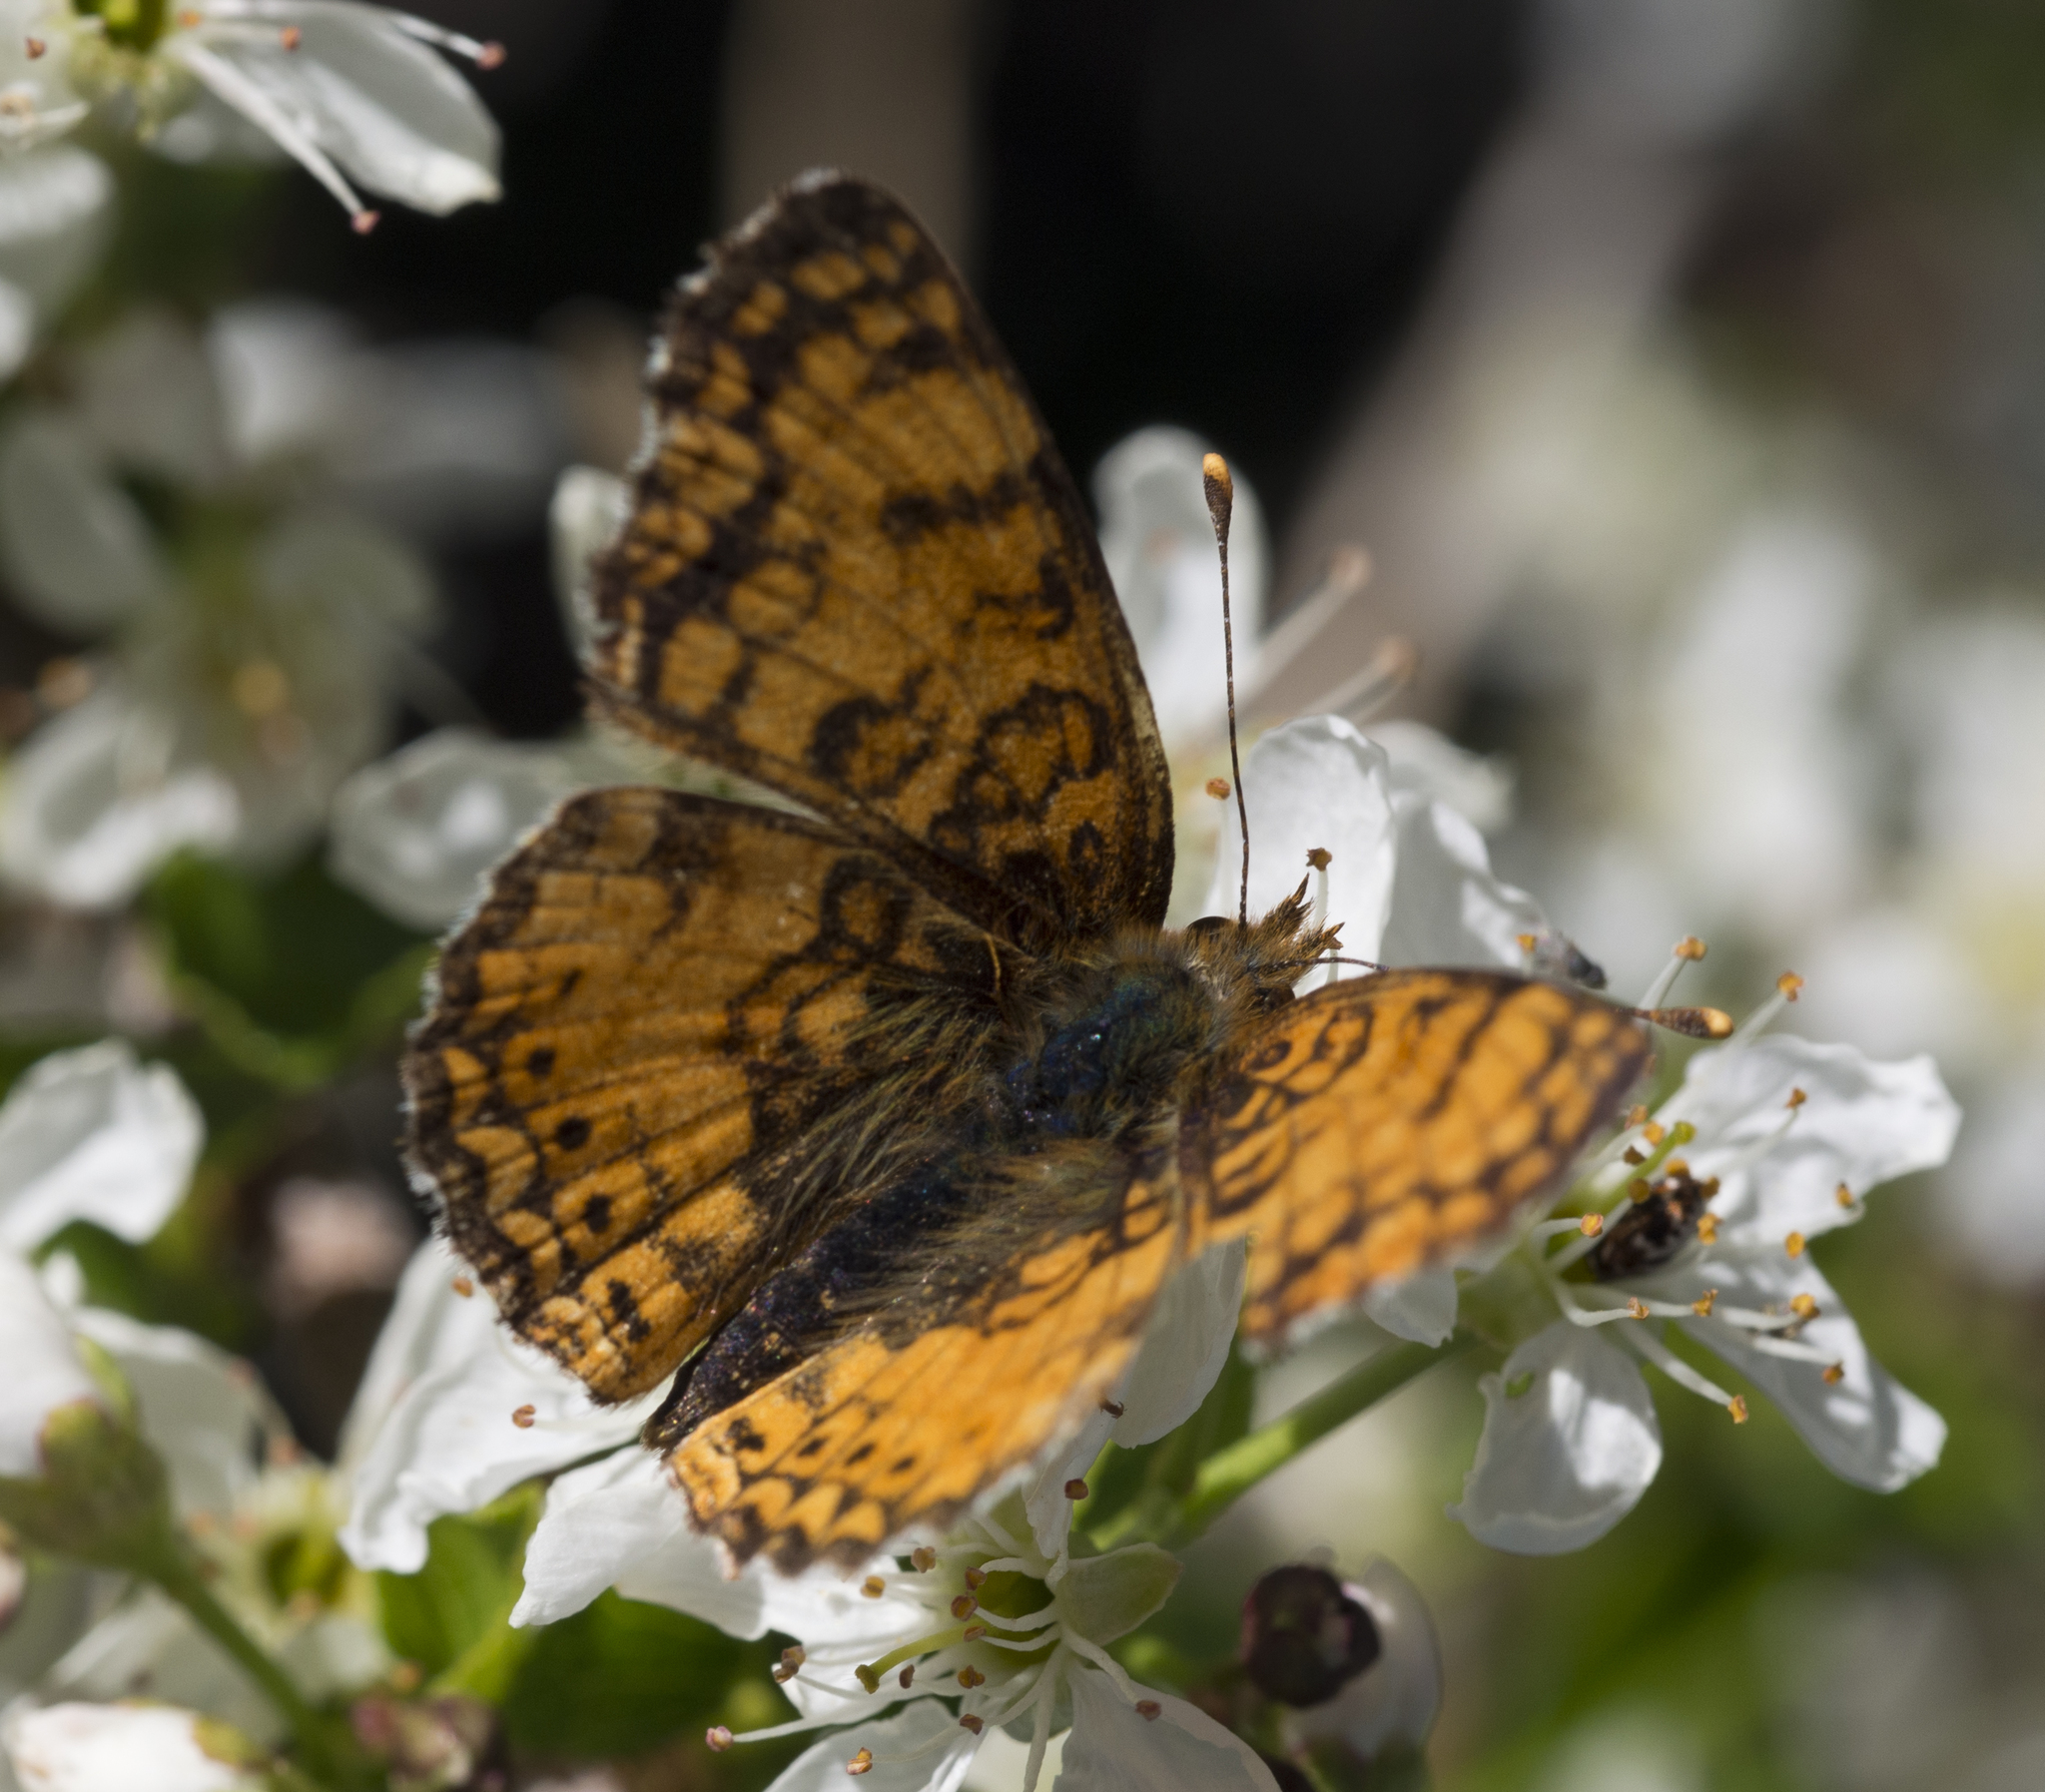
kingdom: Animalia
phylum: Arthropoda
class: Insecta
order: Lepidoptera
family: Nymphalidae
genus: Eresia
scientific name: Eresia aveyrona
